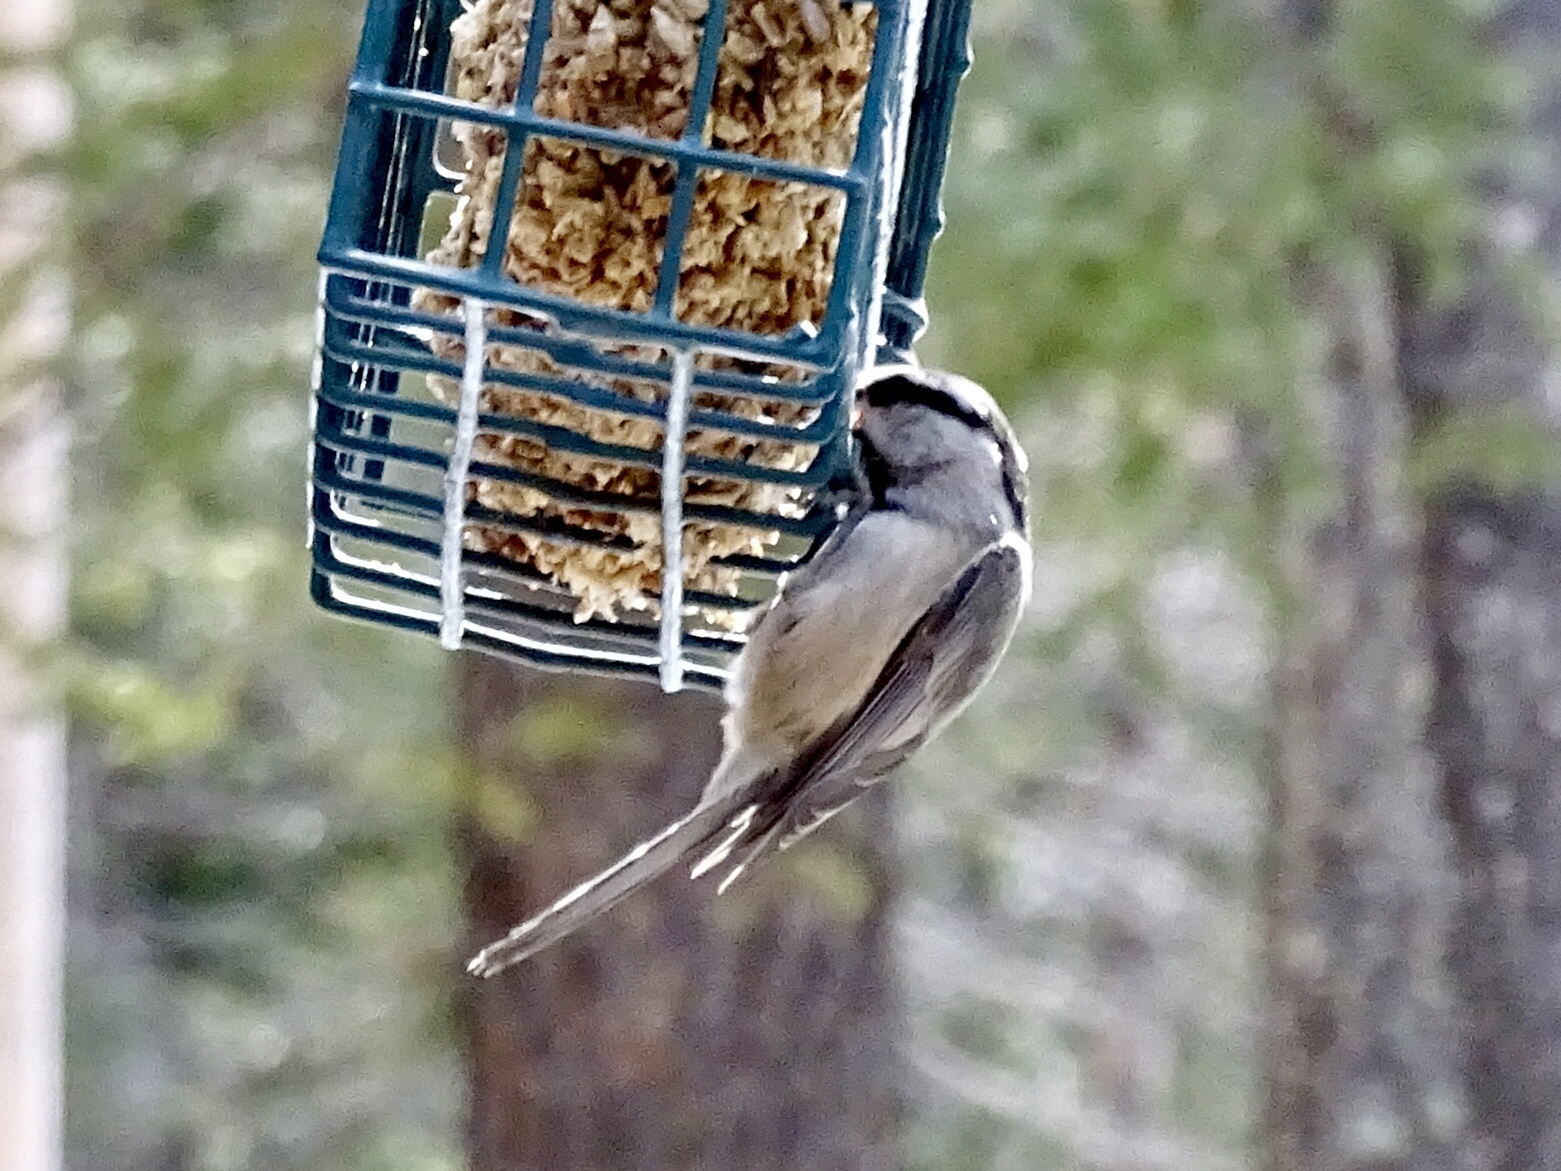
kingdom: Animalia
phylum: Chordata
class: Aves
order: Passeriformes
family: Paridae
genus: Poecile
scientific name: Poecile gambeli
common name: Mountain chickadee
